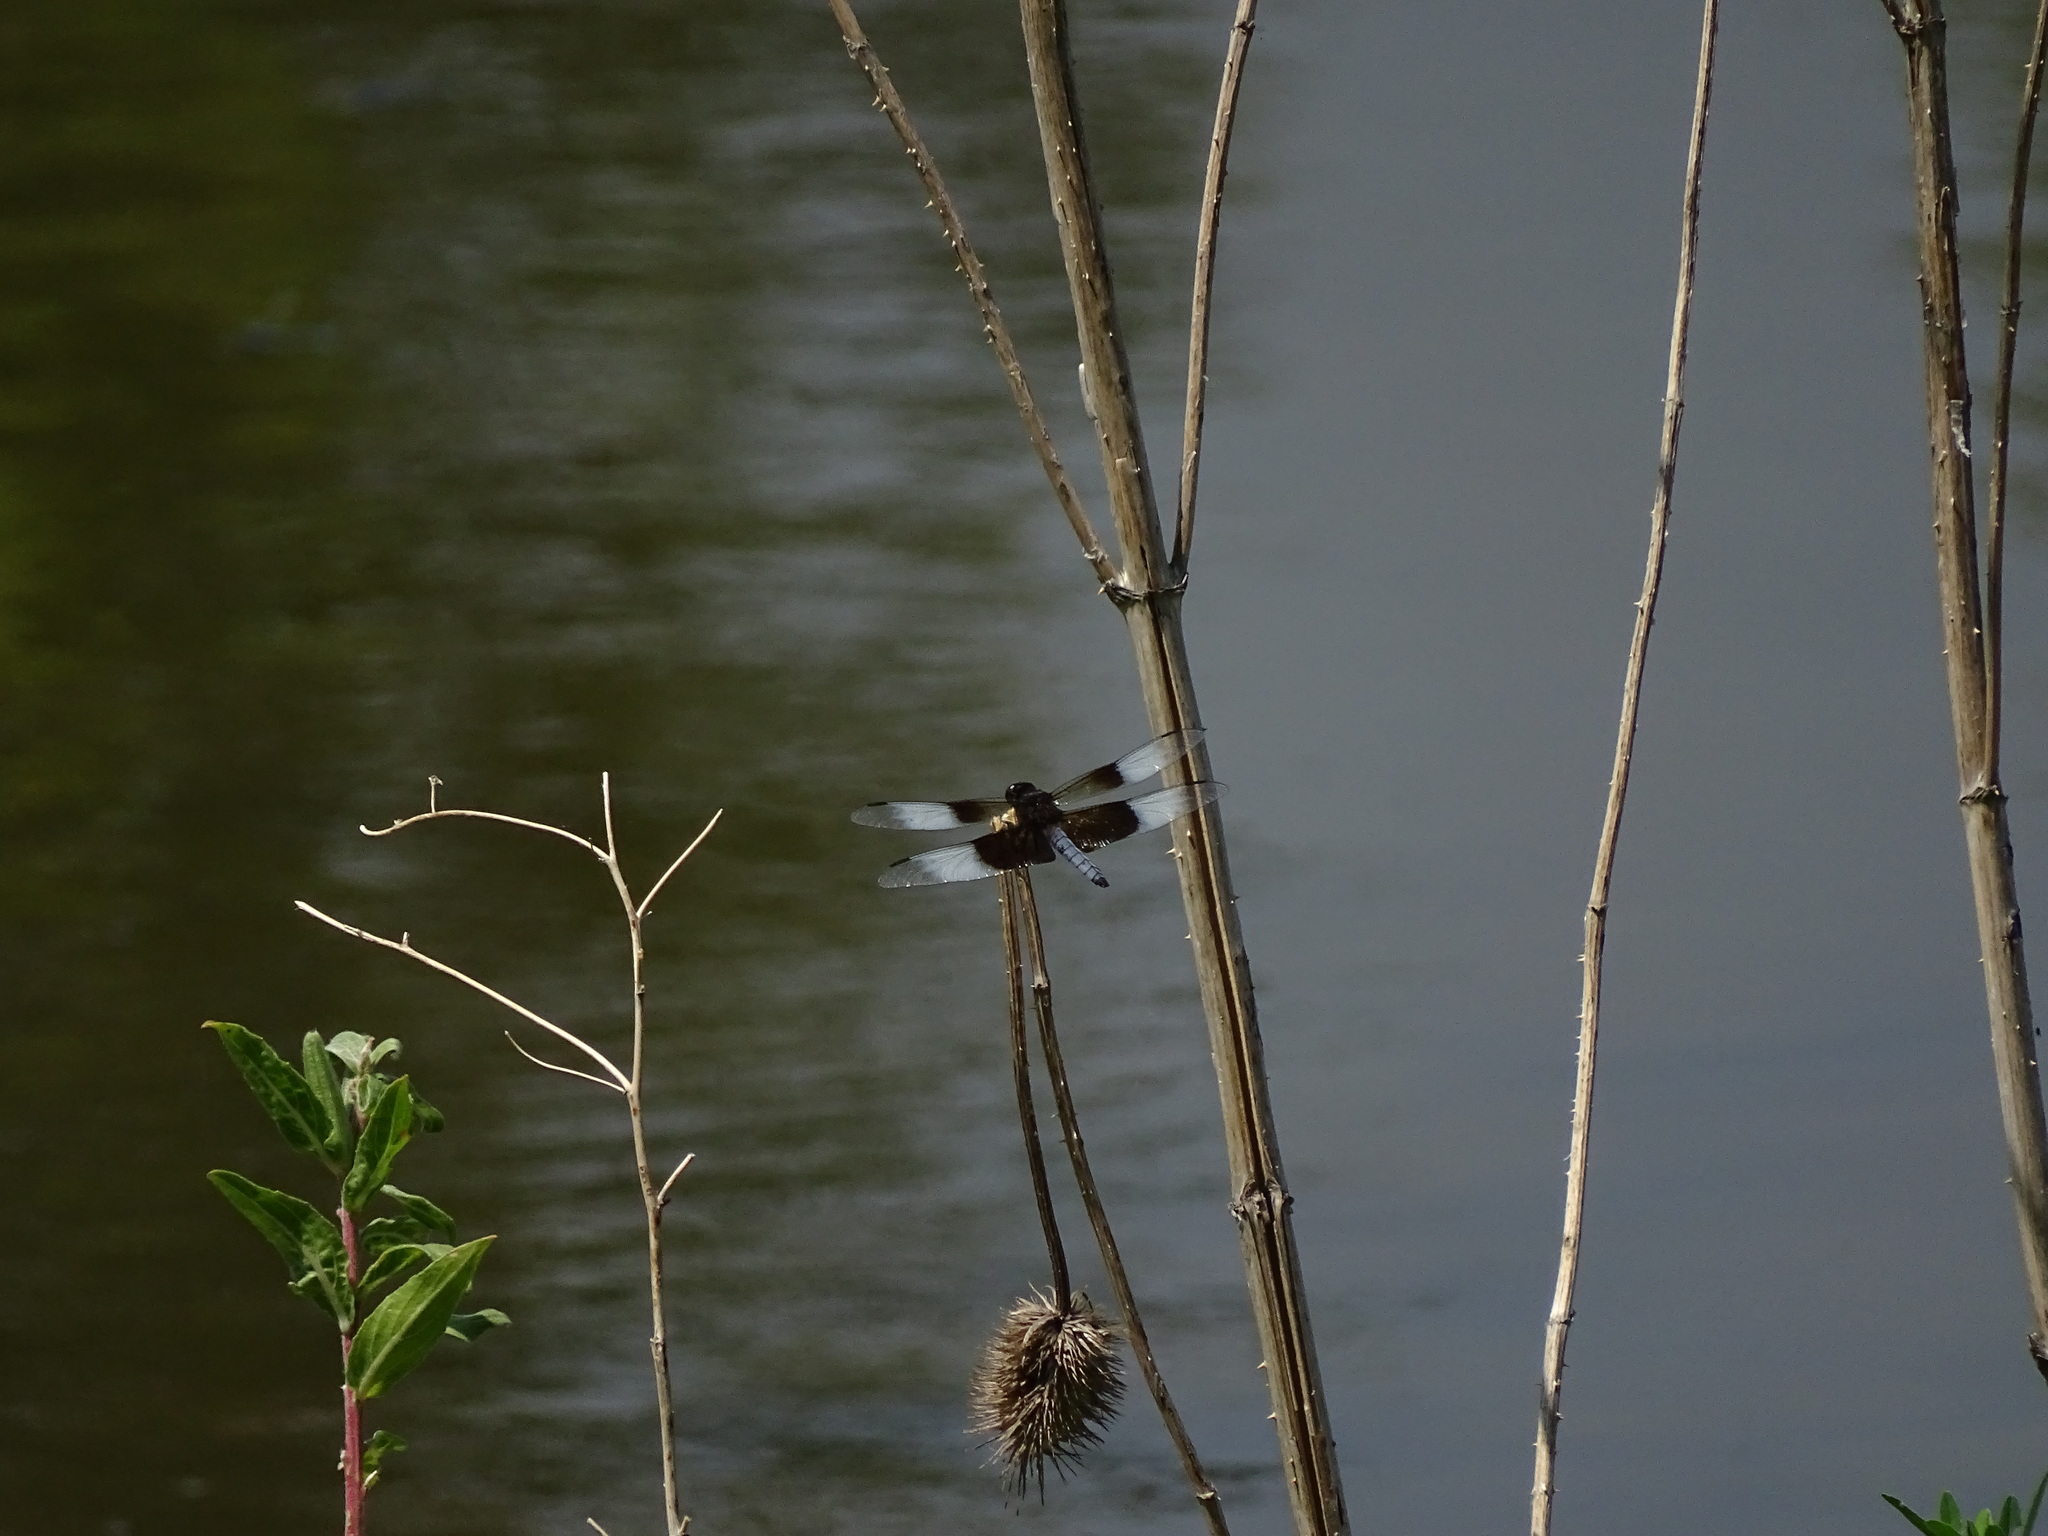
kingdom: Animalia
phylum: Arthropoda
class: Insecta
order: Odonata
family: Libellulidae
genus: Libellula
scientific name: Libellula luctuosa
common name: Widow skimmer
